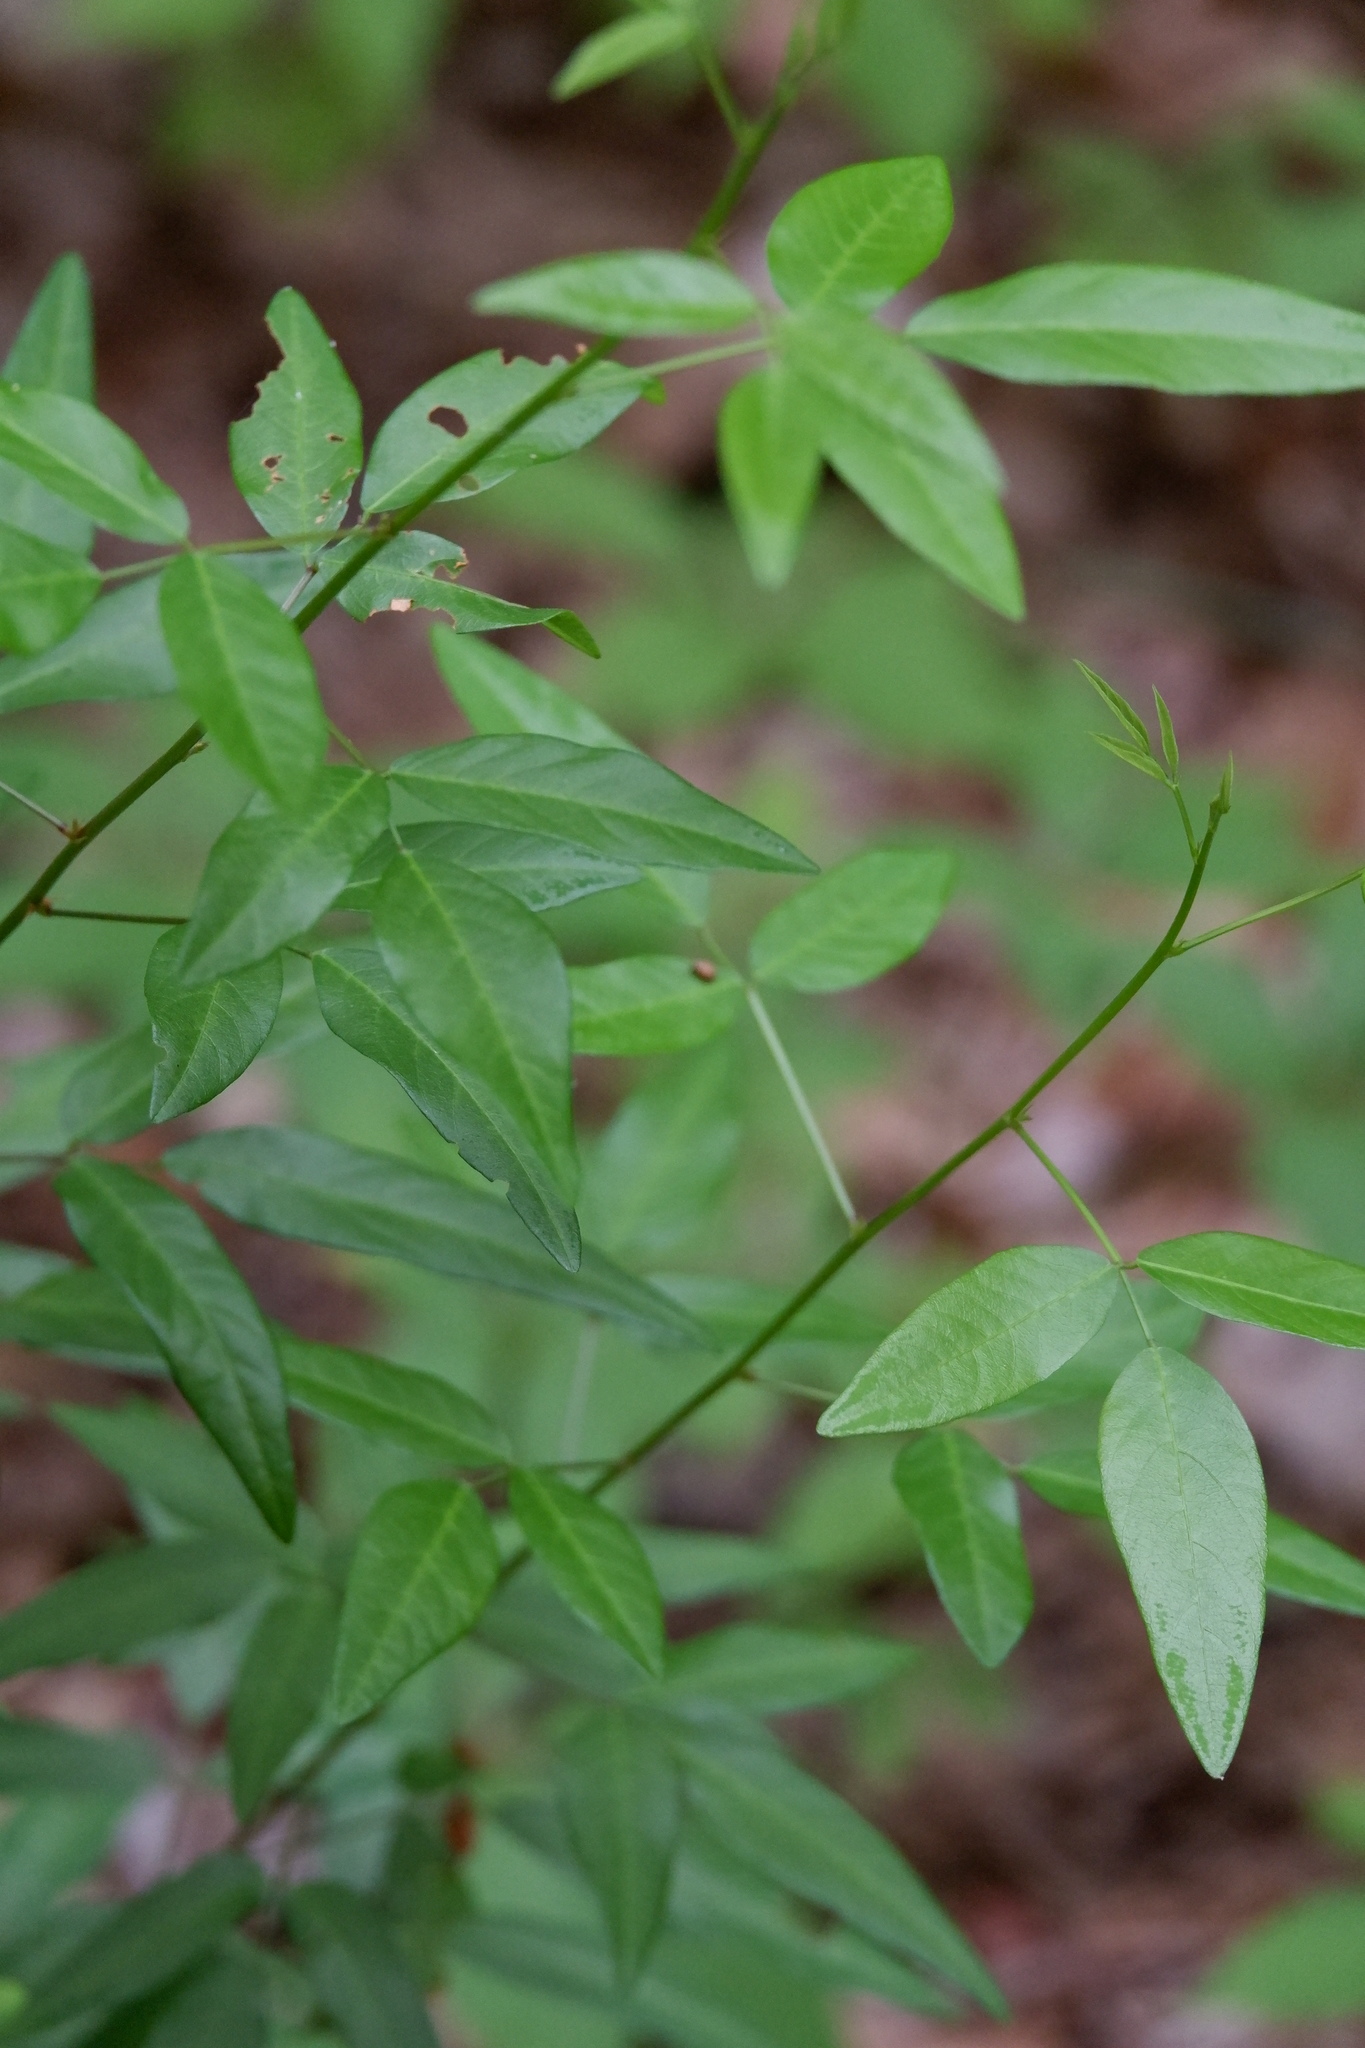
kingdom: Plantae
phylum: Tracheophyta
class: Magnoliopsida
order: Fabales
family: Fabaceae
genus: Desmodium
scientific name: Desmodium paniculatum
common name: Panicled tick-clover
